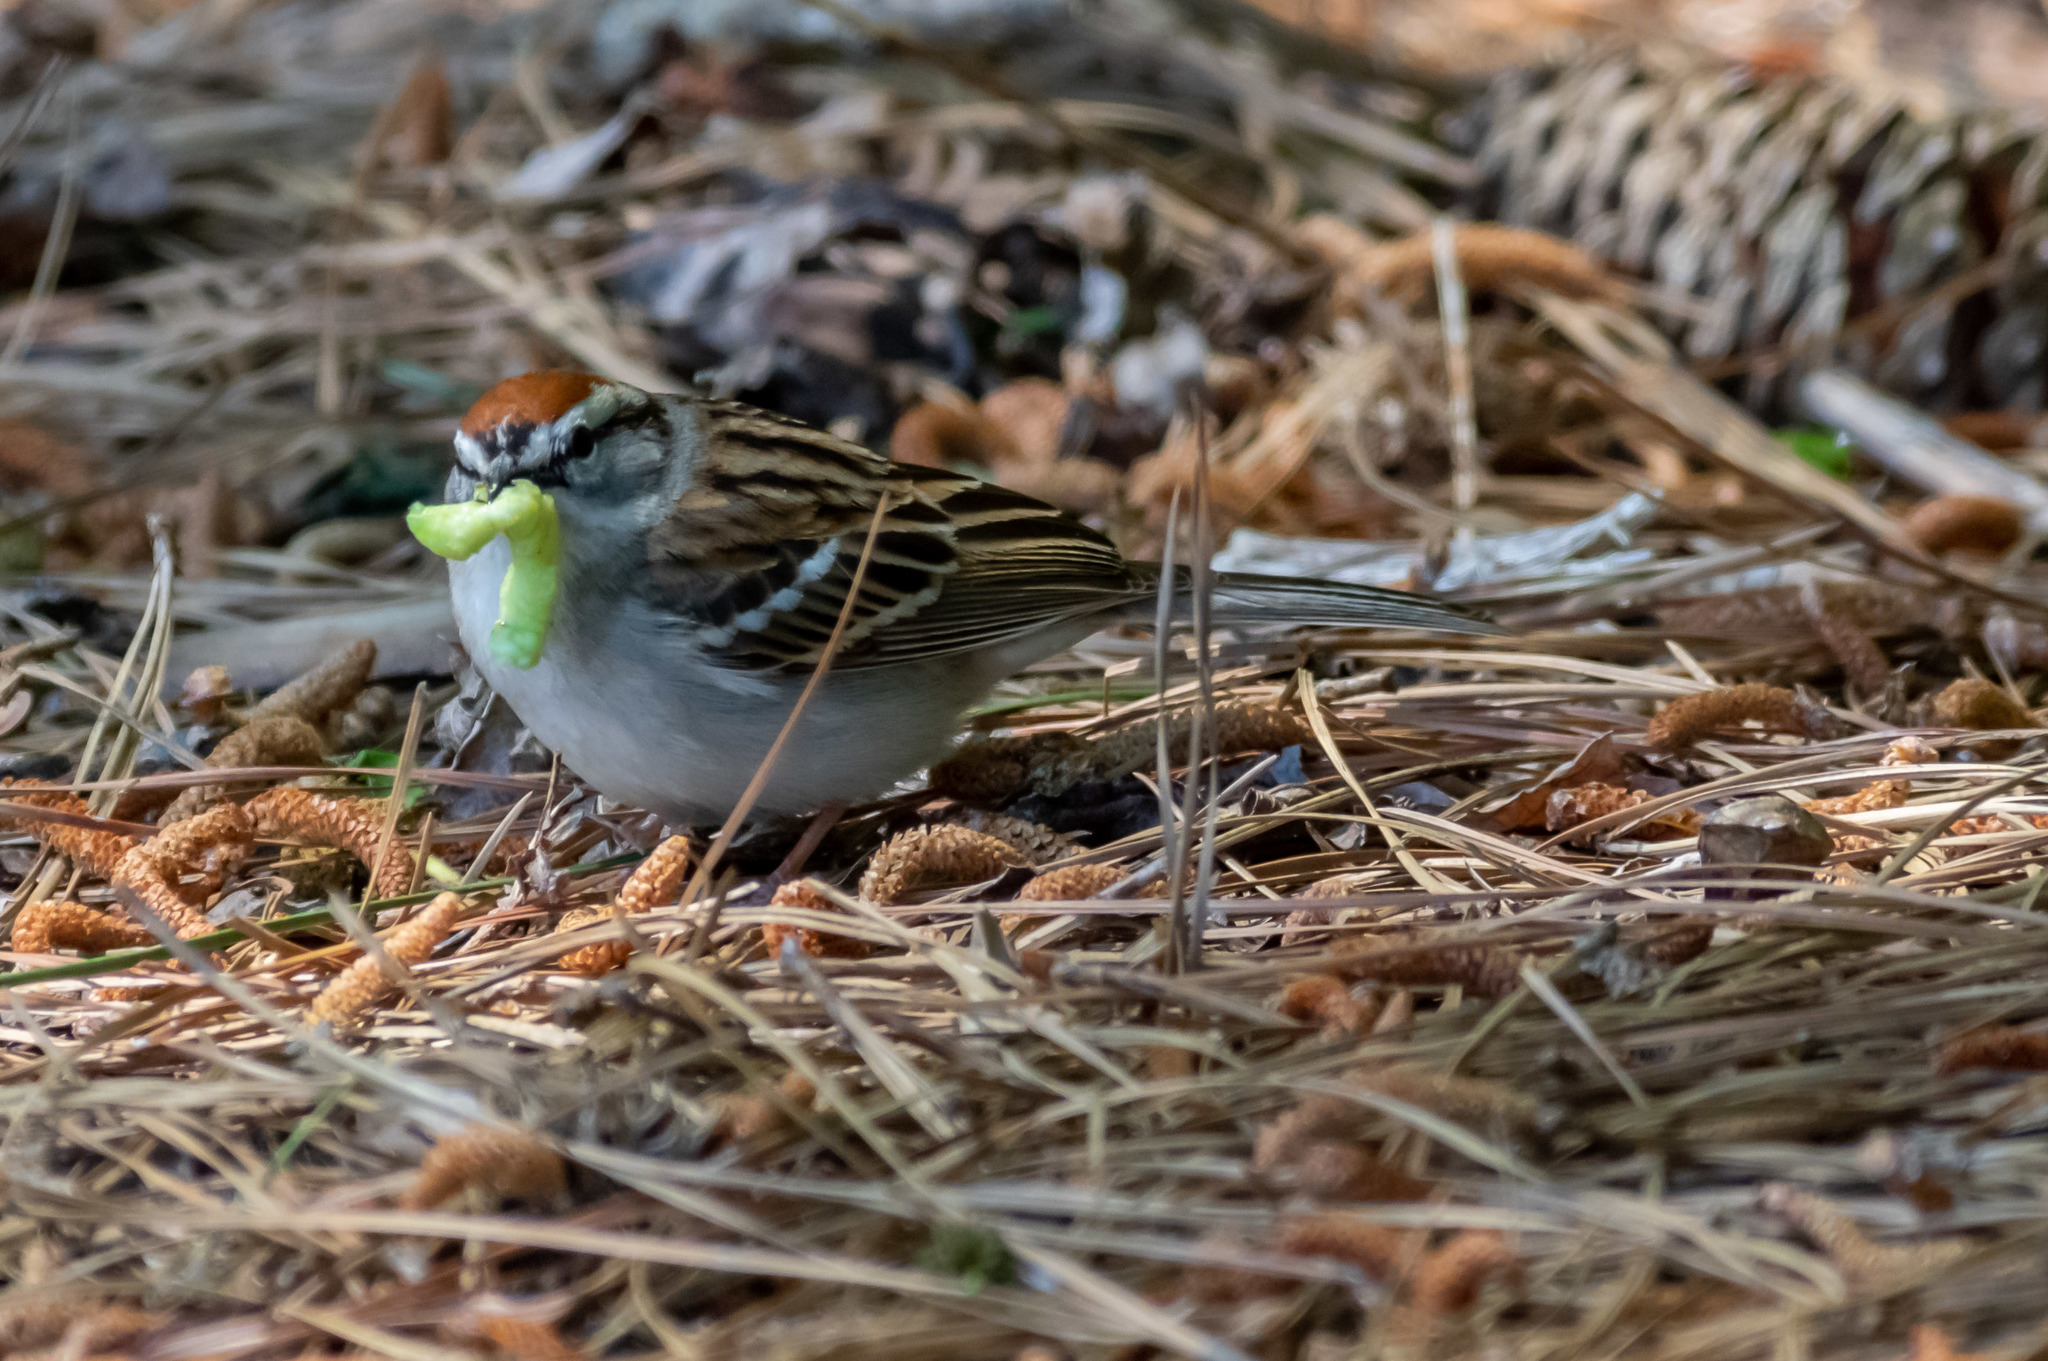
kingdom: Animalia
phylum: Chordata
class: Aves
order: Passeriformes
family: Passerellidae
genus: Spizella
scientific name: Spizella passerina
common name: Chipping sparrow
